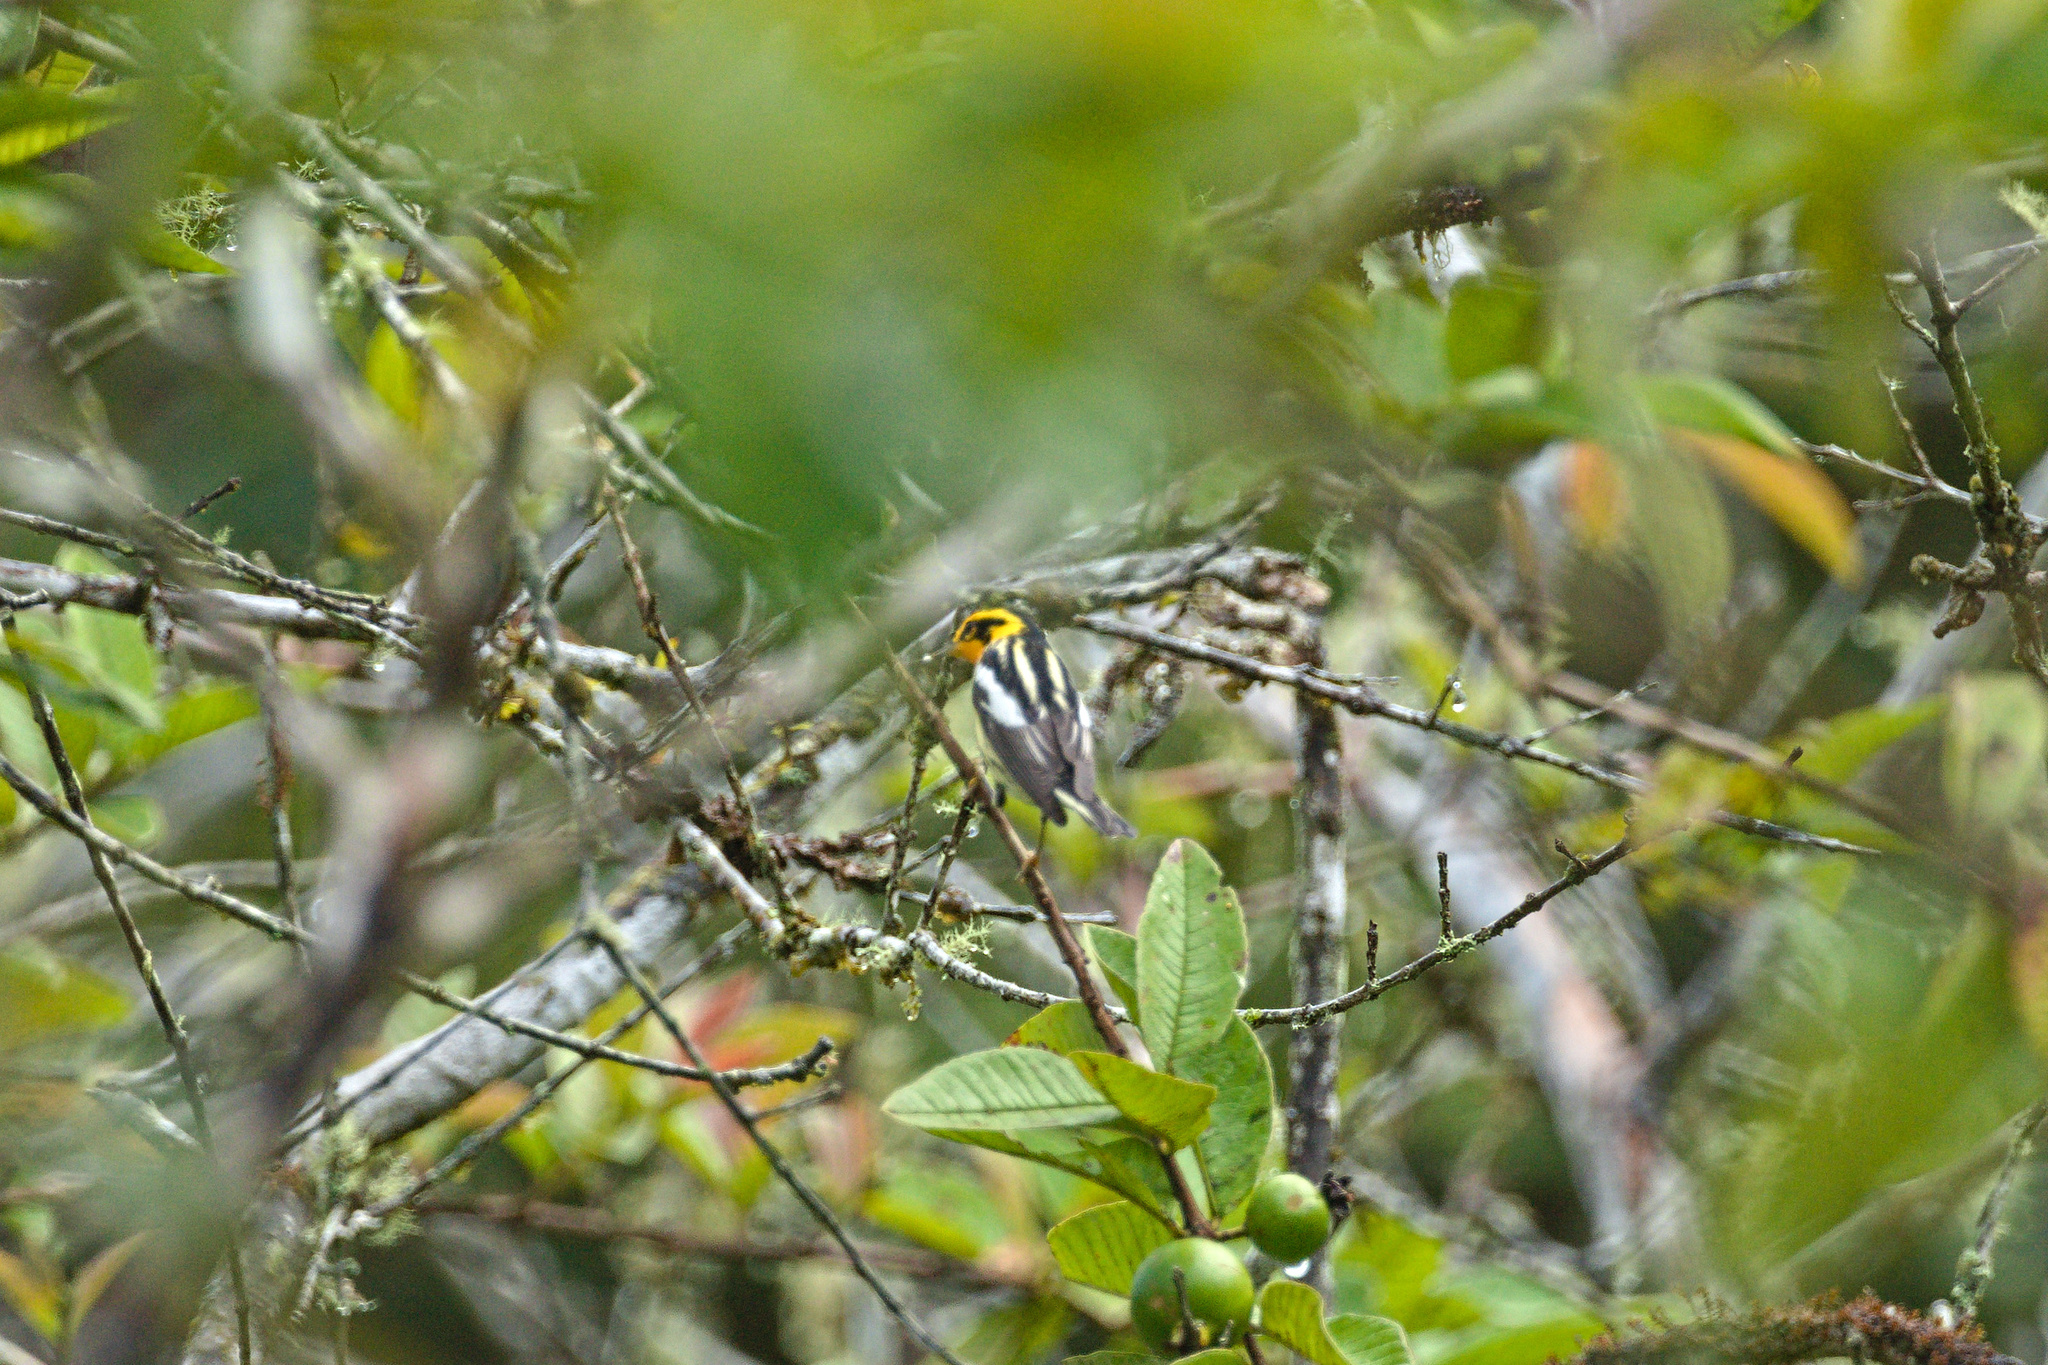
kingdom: Animalia
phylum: Chordata
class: Aves
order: Passeriformes
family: Parulidae
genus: Setophaga
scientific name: Setophaga fusca
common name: Blackburnian warbler
